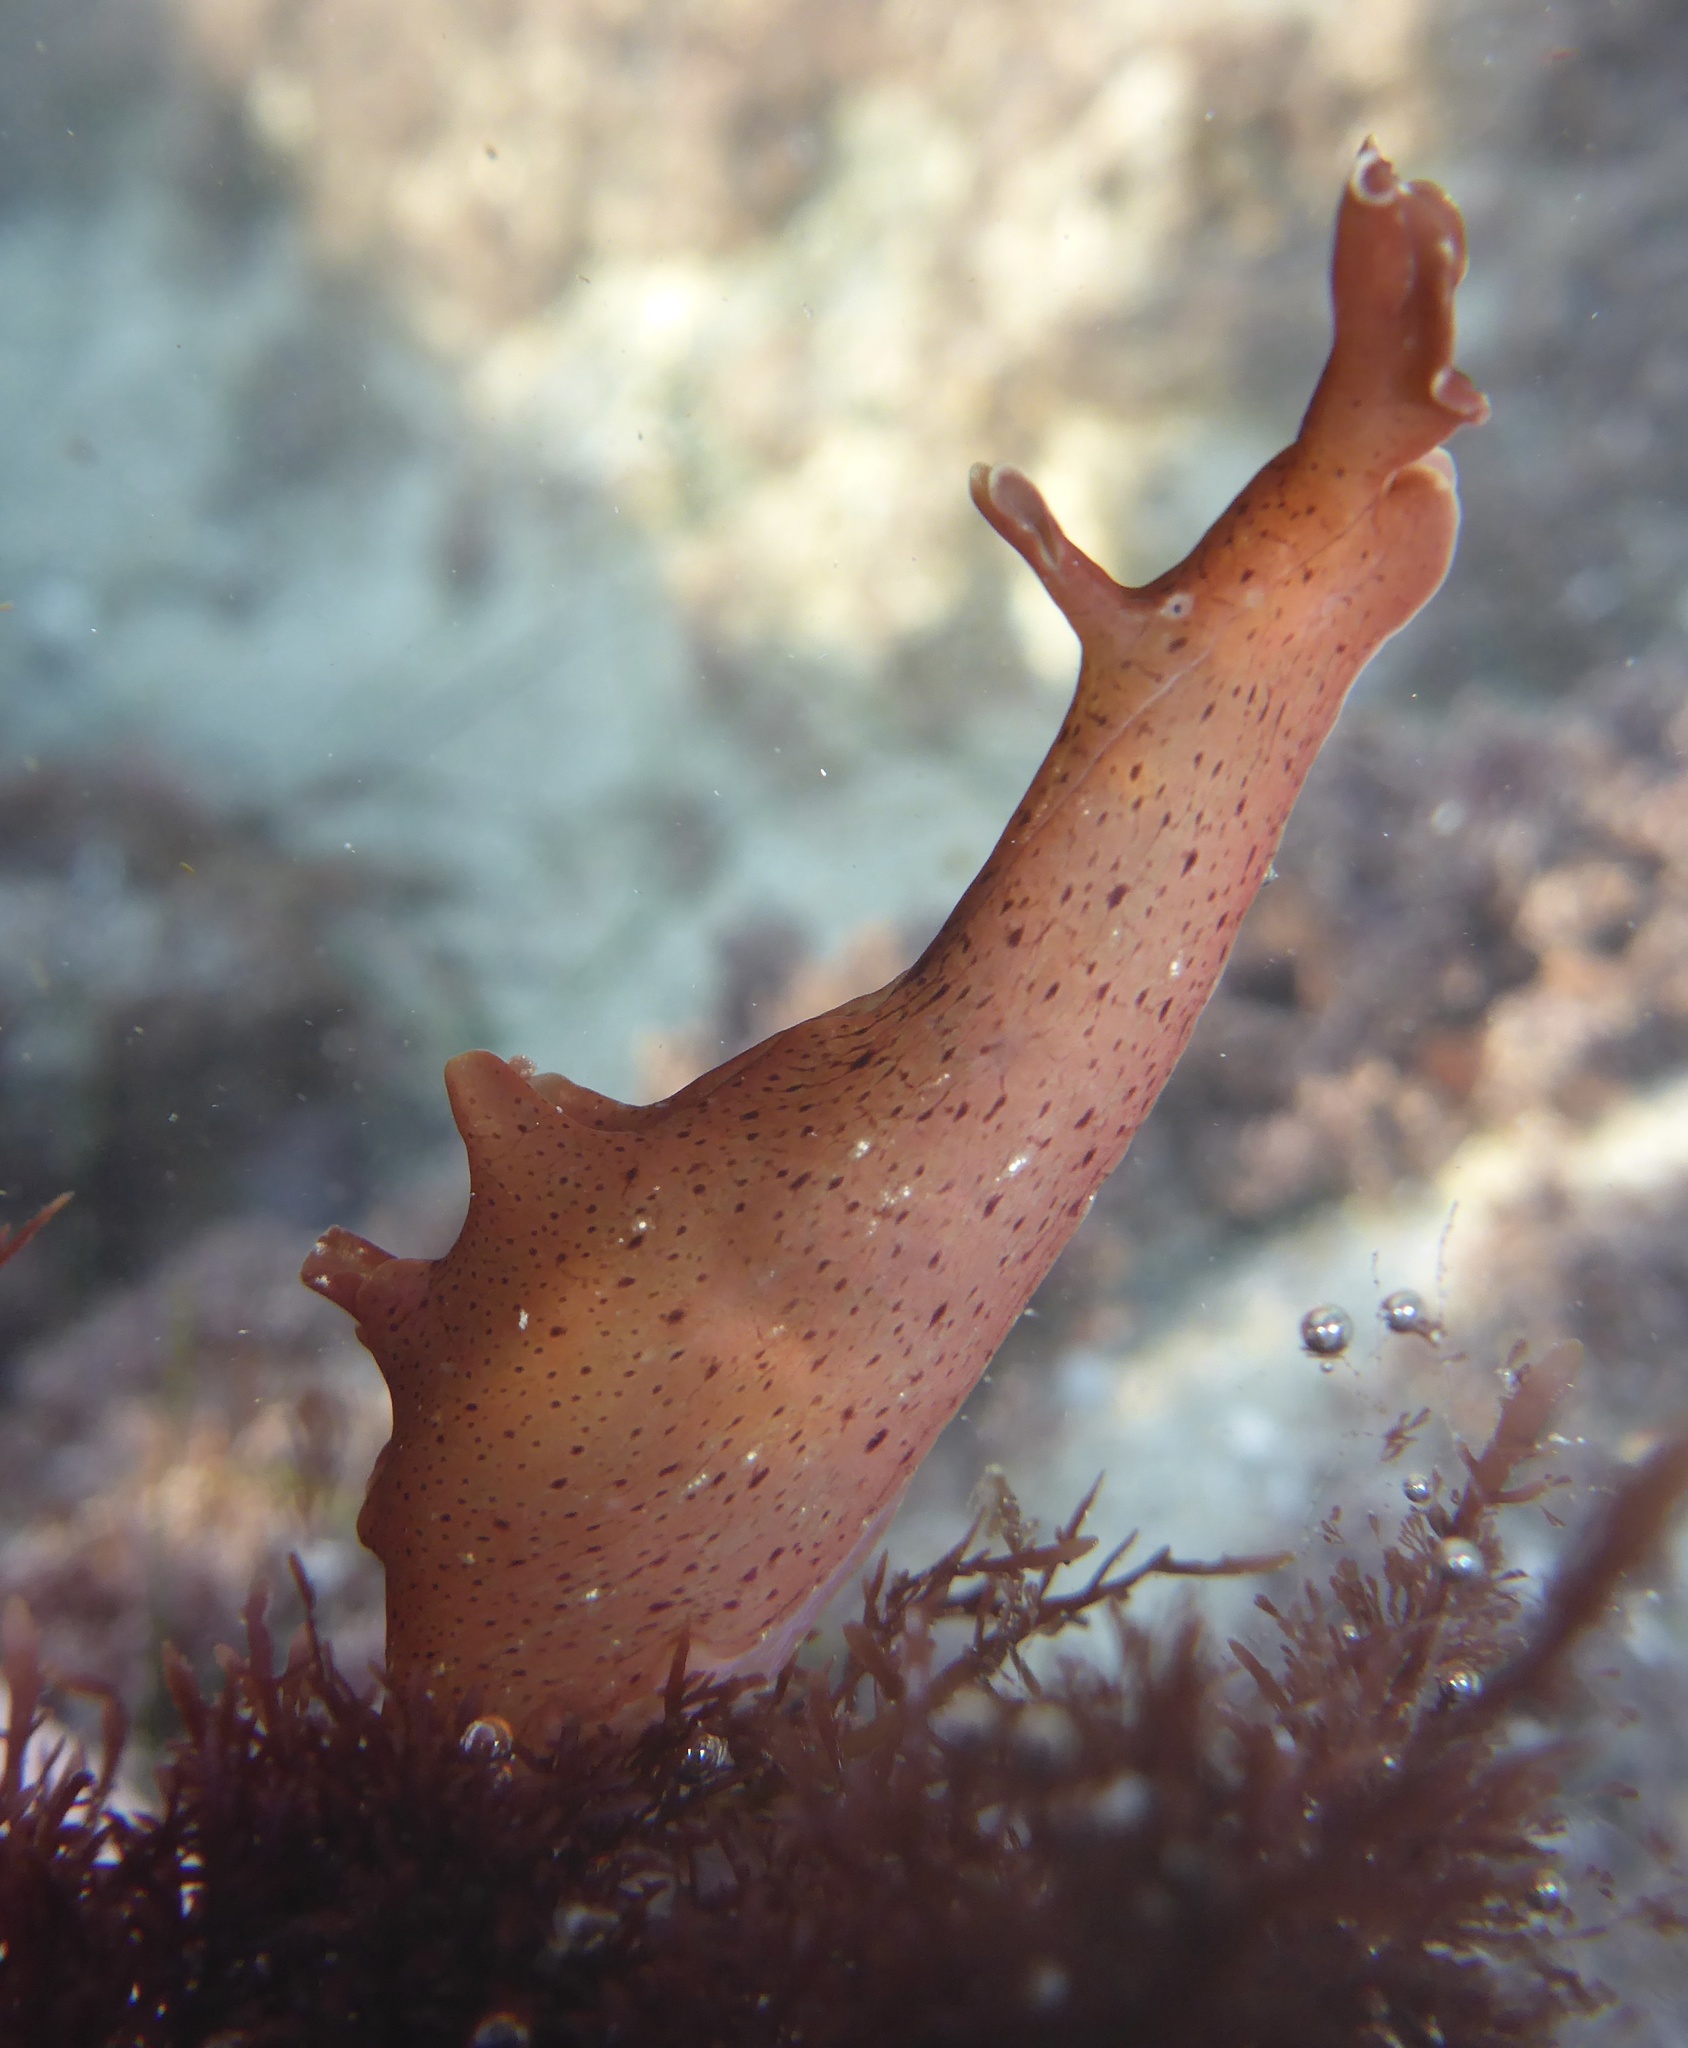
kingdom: Animalia
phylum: Mollusca
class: Gastropoda
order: Aplysiida
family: Aplysiidae
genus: Aplysia
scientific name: Aplysia californica
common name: California seahare
